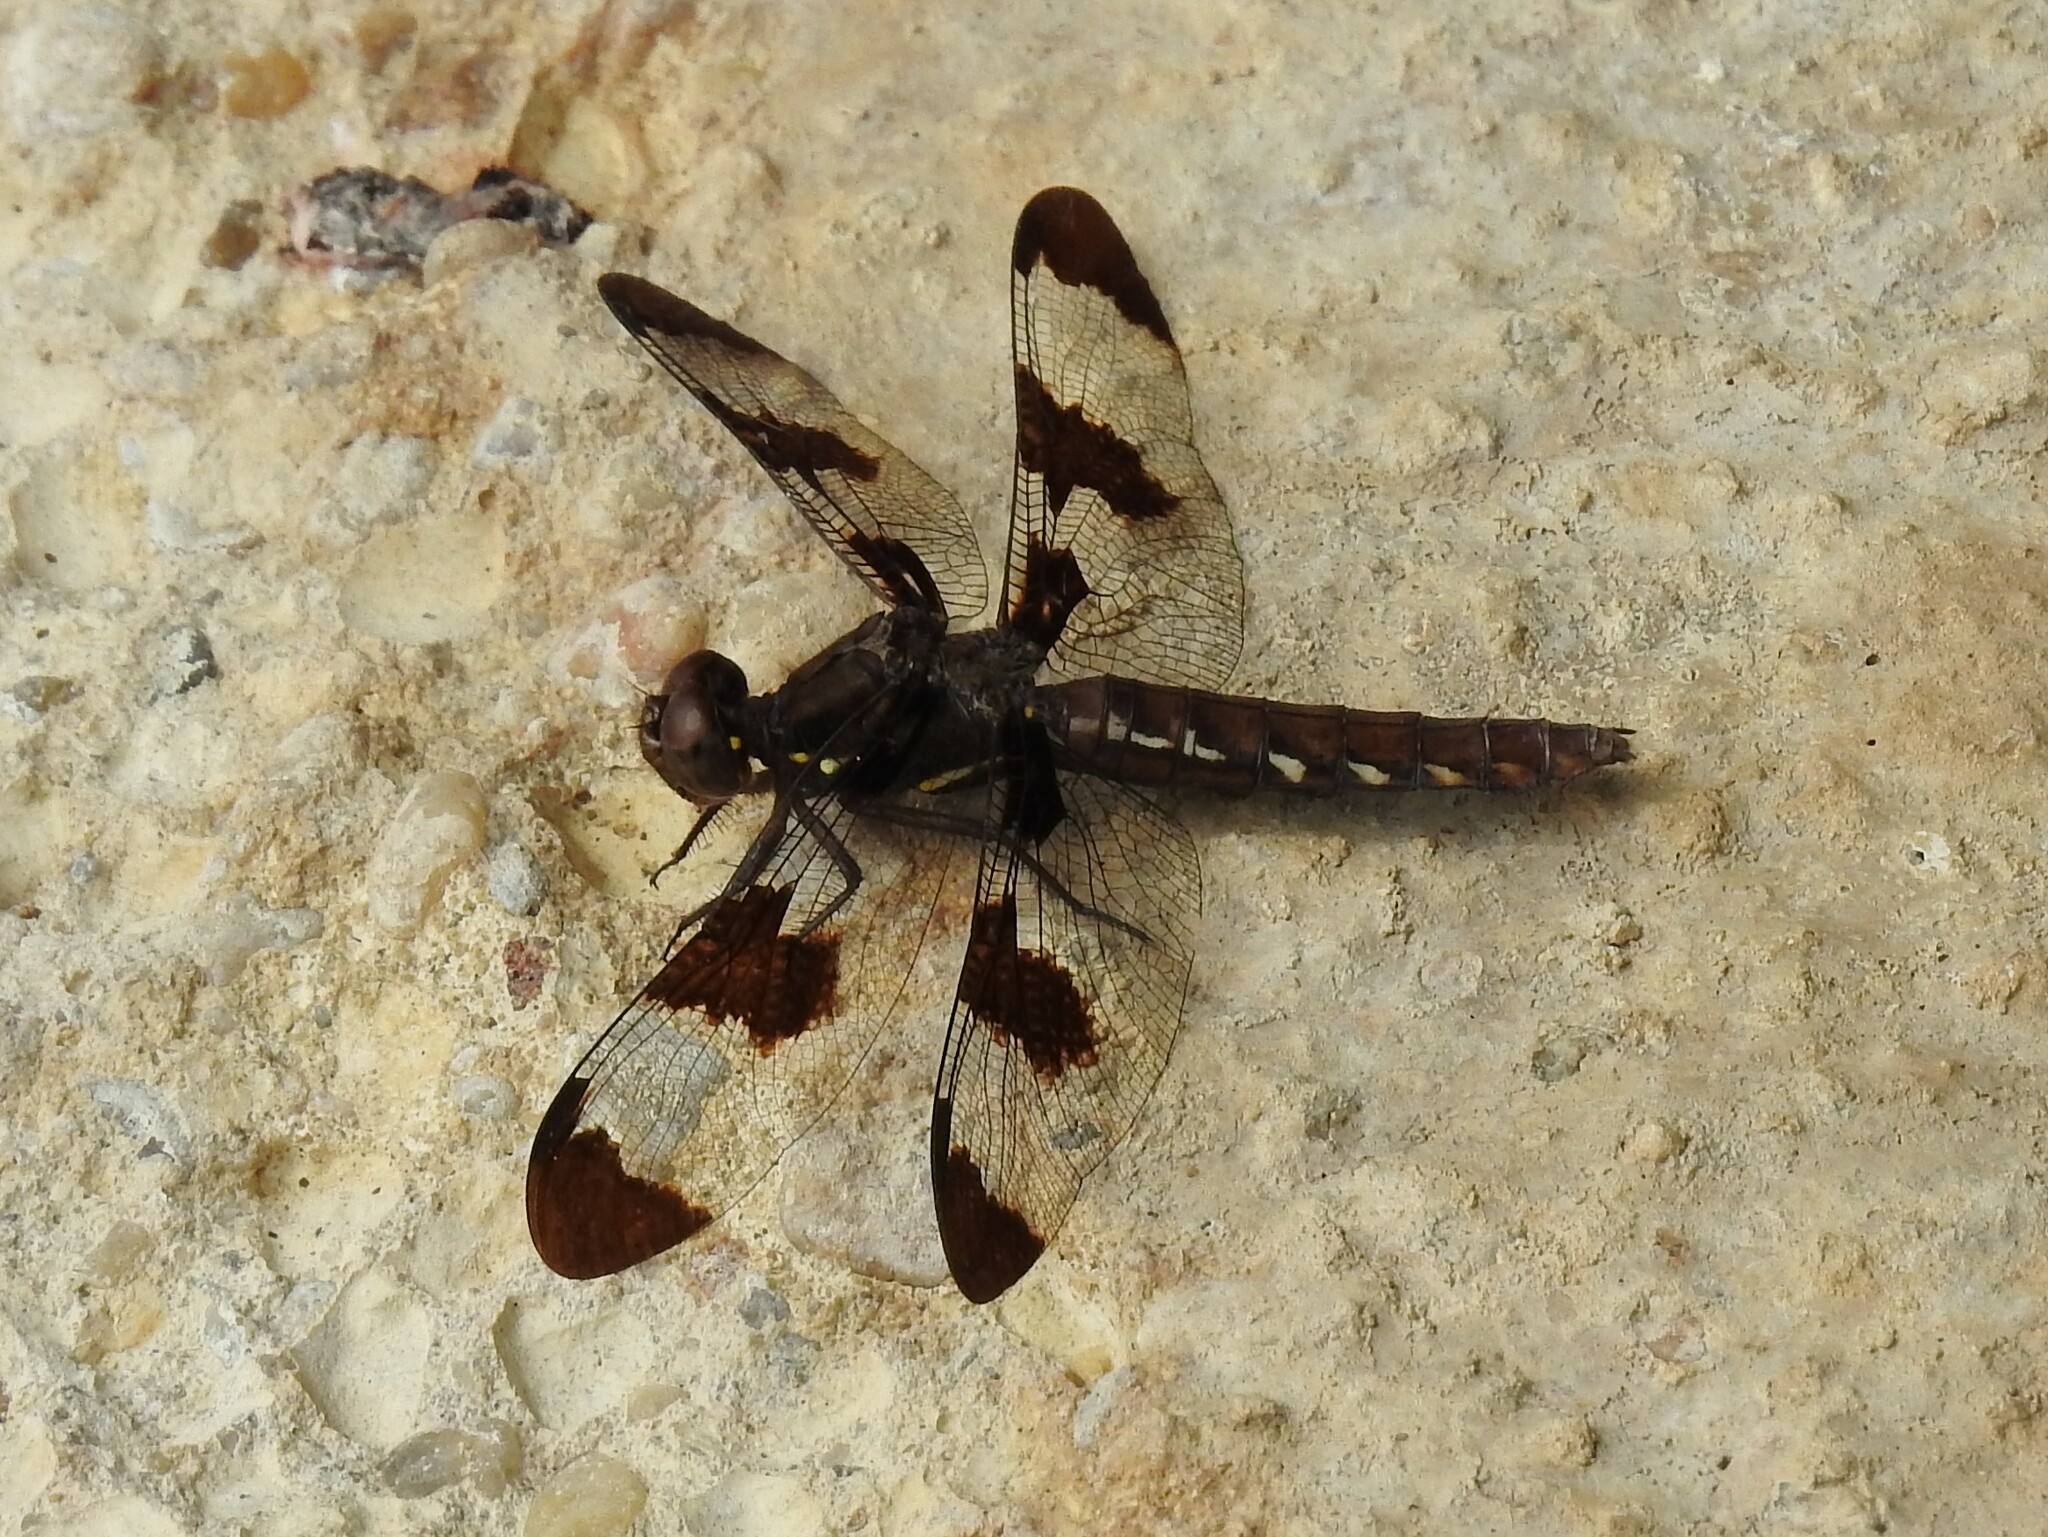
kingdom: Animalia
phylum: Arthropoda
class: Insecta
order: Odonata
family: Libellulidae
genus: Plathemis
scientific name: Plathemis lydia
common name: Common whitetail
